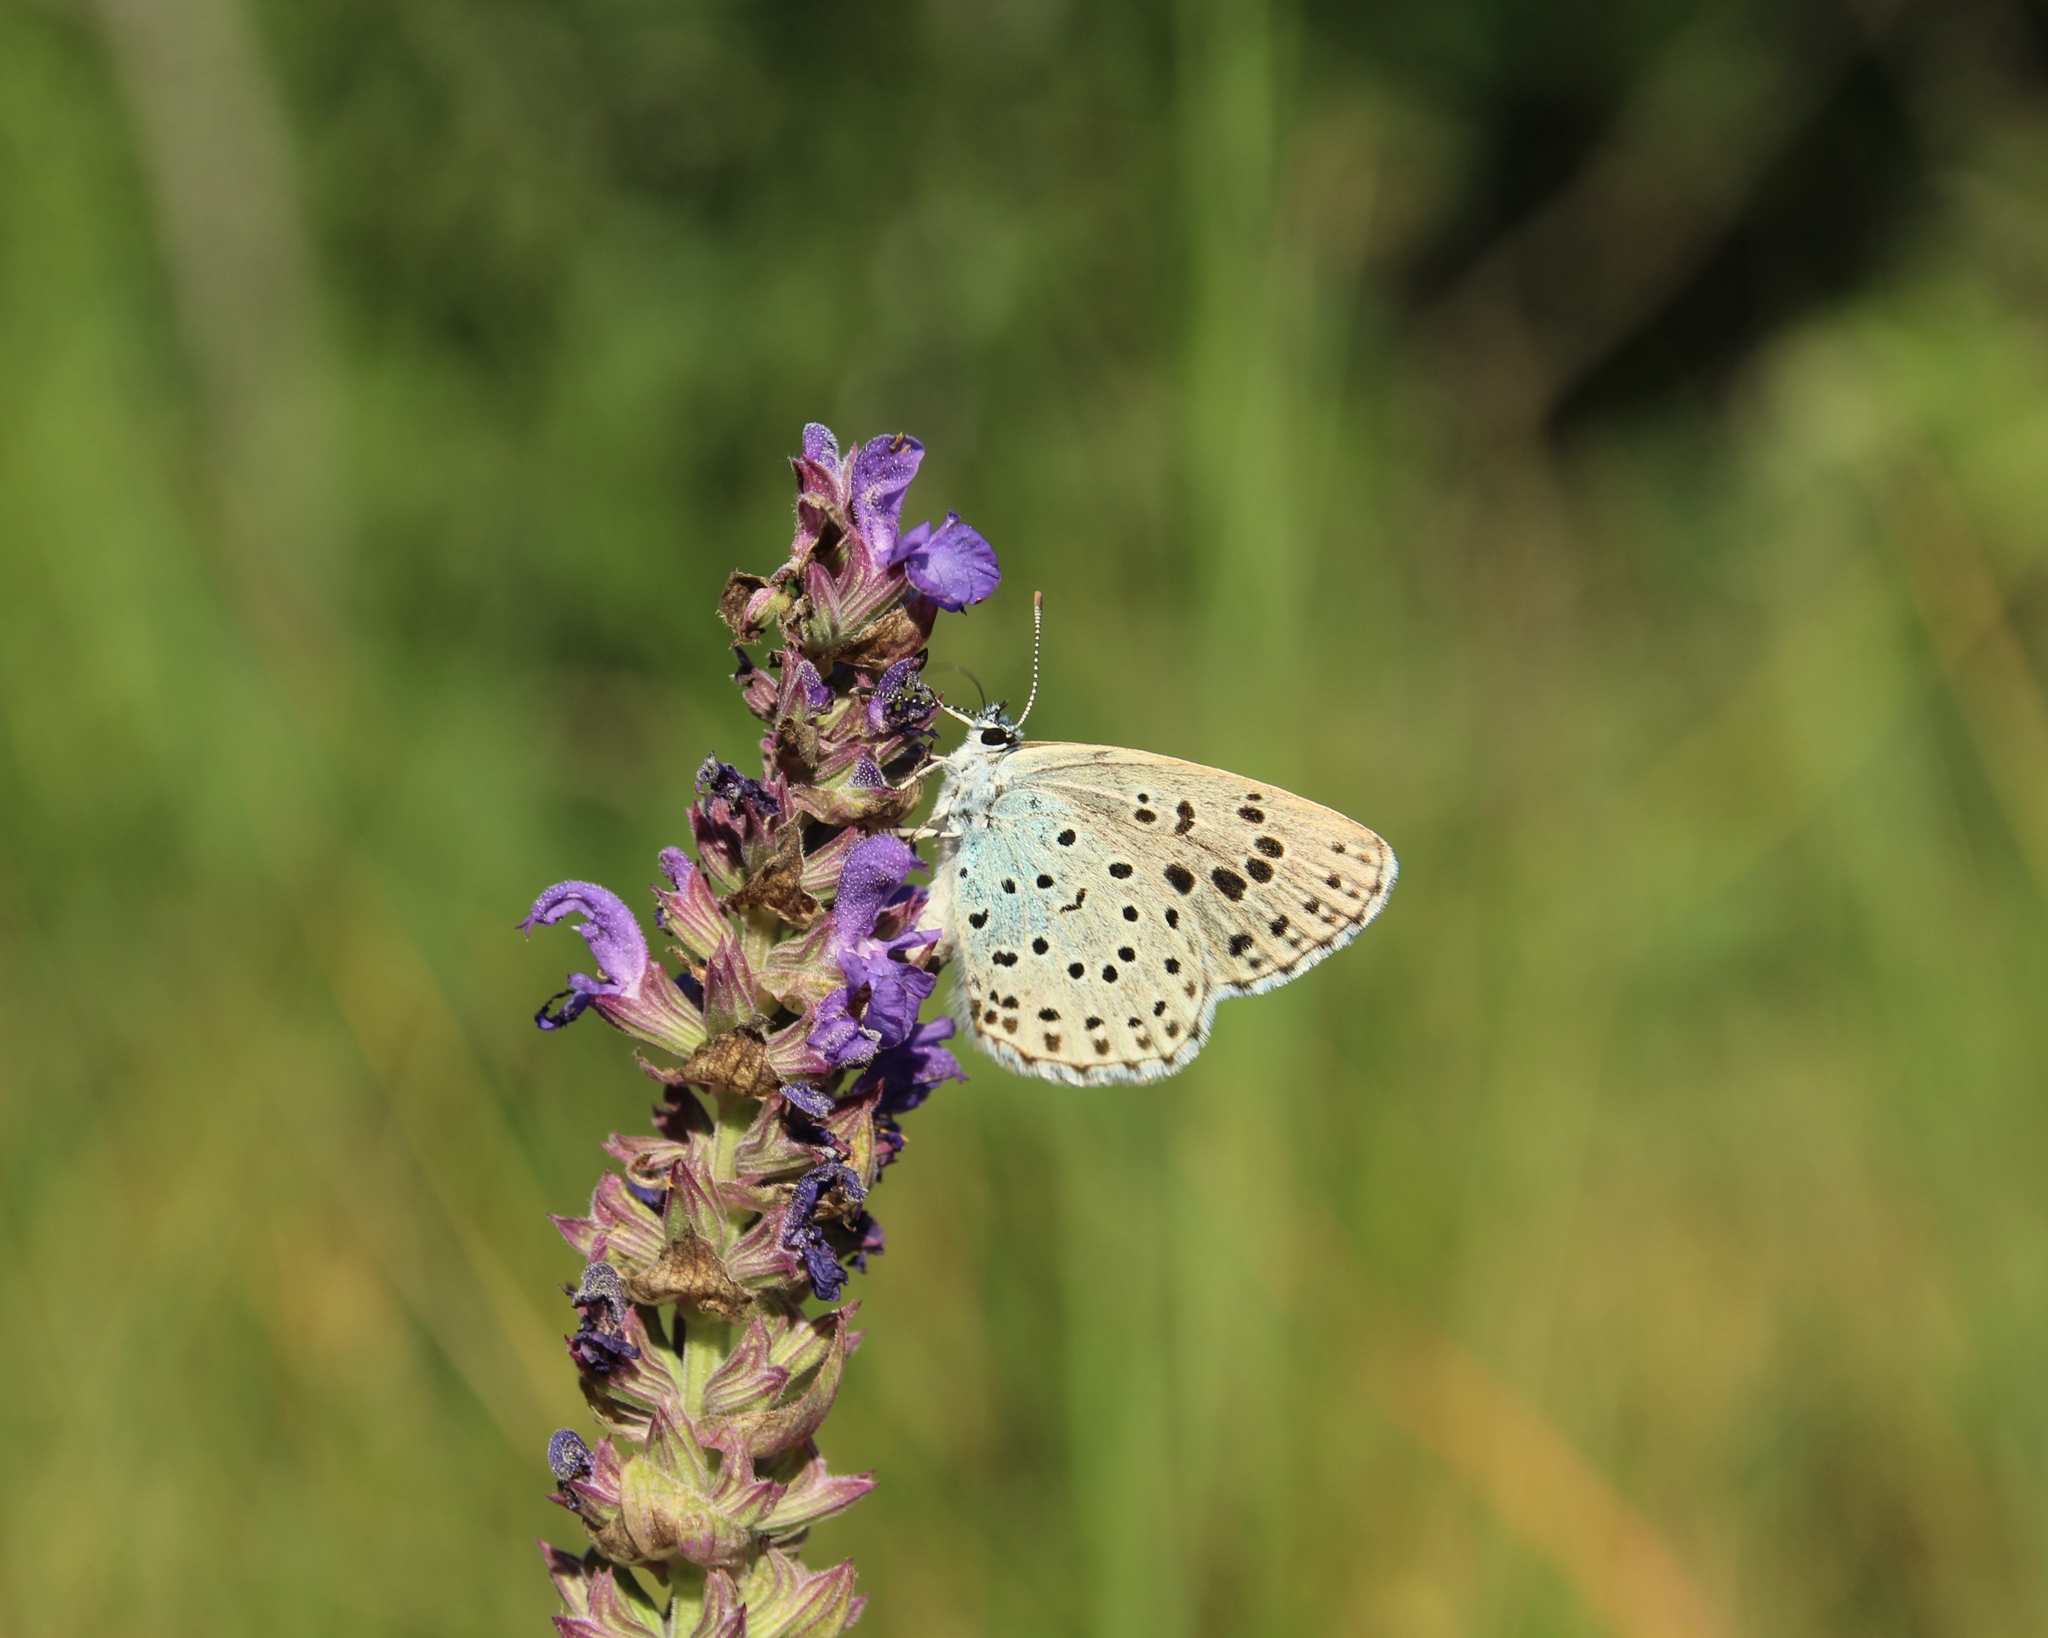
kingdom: Animalia
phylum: Arthropoda
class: Insecta
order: Lepidoptera
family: Lycaenidae
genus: Maculinea
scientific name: Maculinea arion
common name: Large blue
